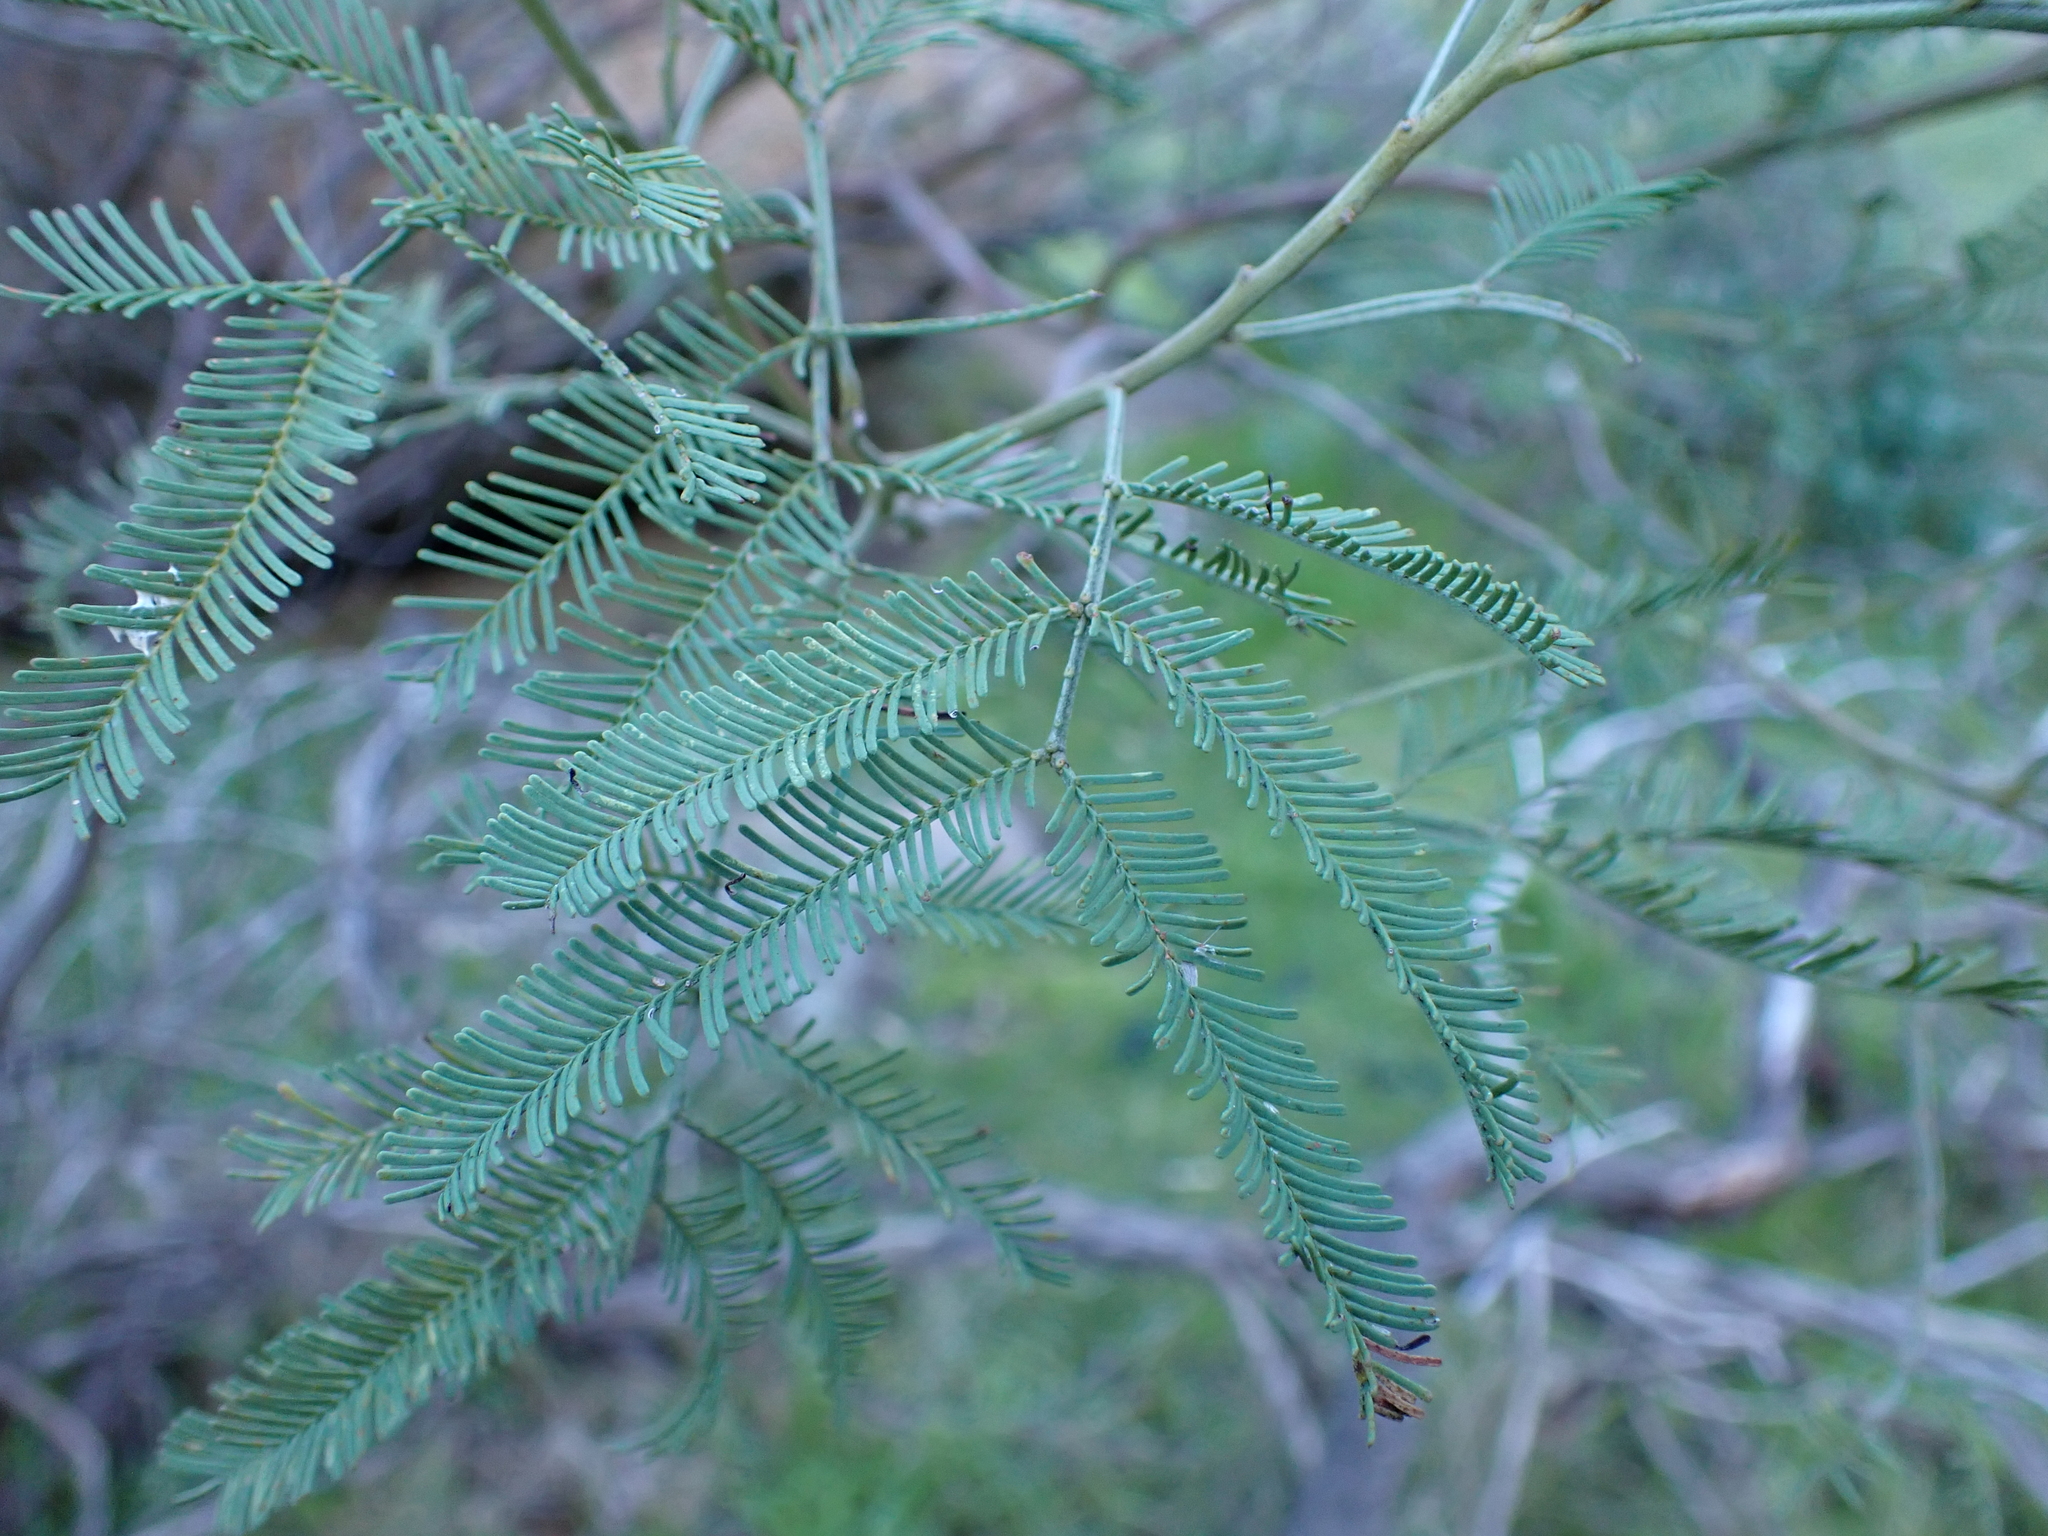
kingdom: Plantae
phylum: Tracheophyta
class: Magnoliopsida
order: Fabales
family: Fabaceae
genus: Acacia
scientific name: Acacia deanei
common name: Deane's wattle
